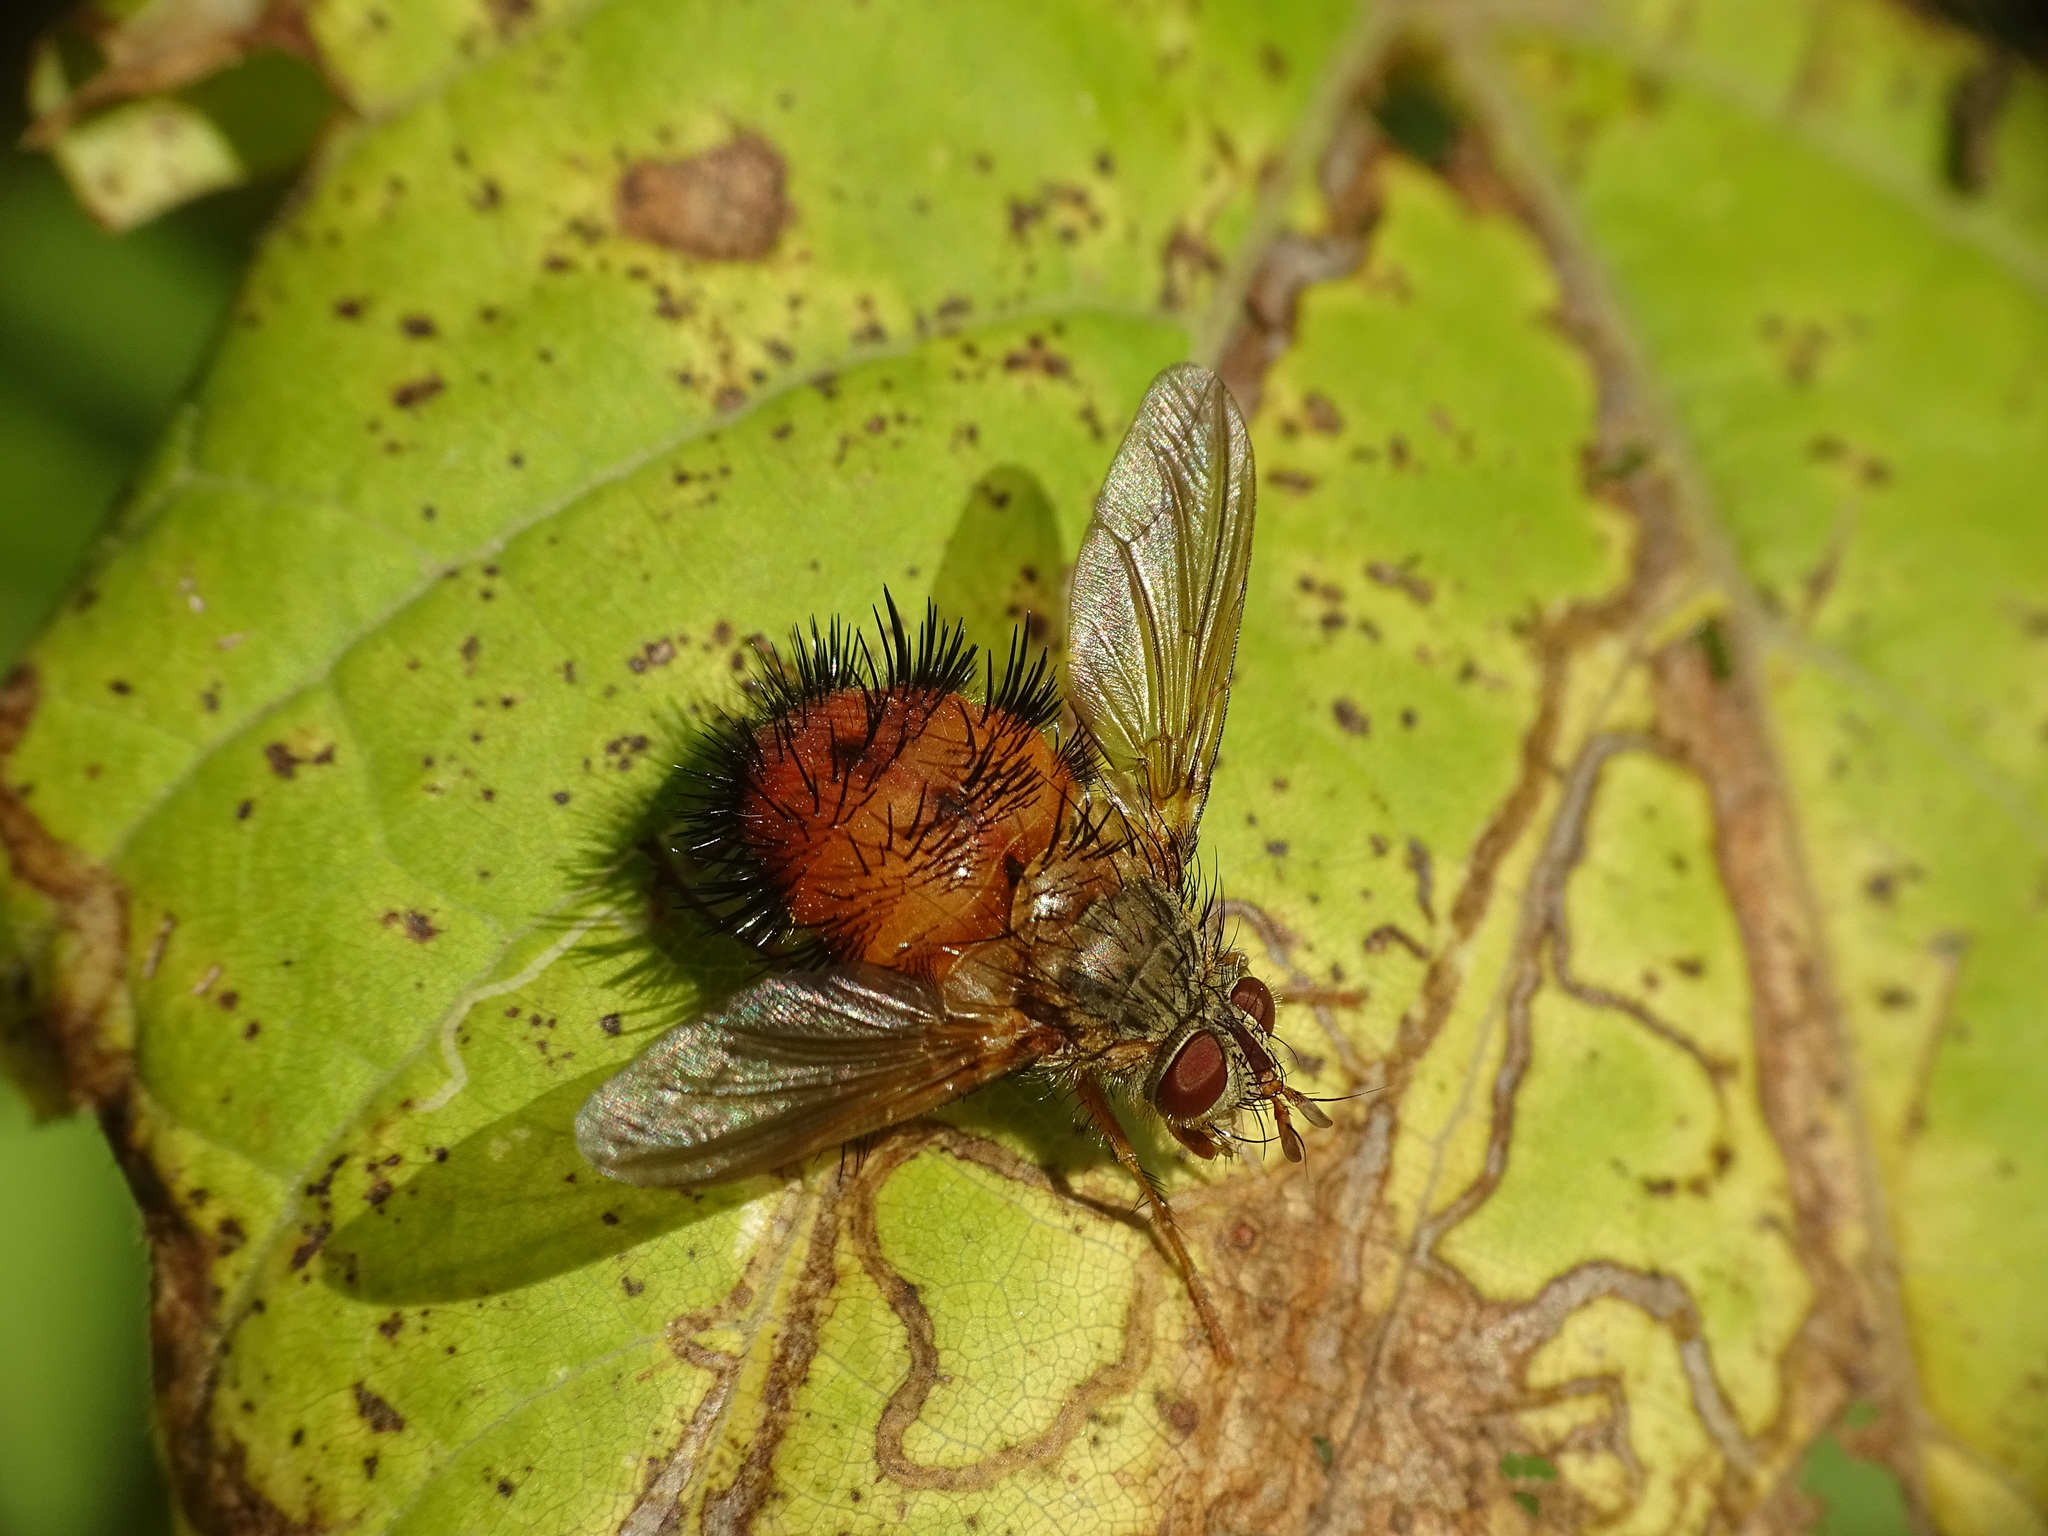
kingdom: Animalia
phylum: Arthropoda
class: Insecta
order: Diptera
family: Tachinidae
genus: Hystricia
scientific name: Hystricia abrupta
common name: Tomato bristle fly
